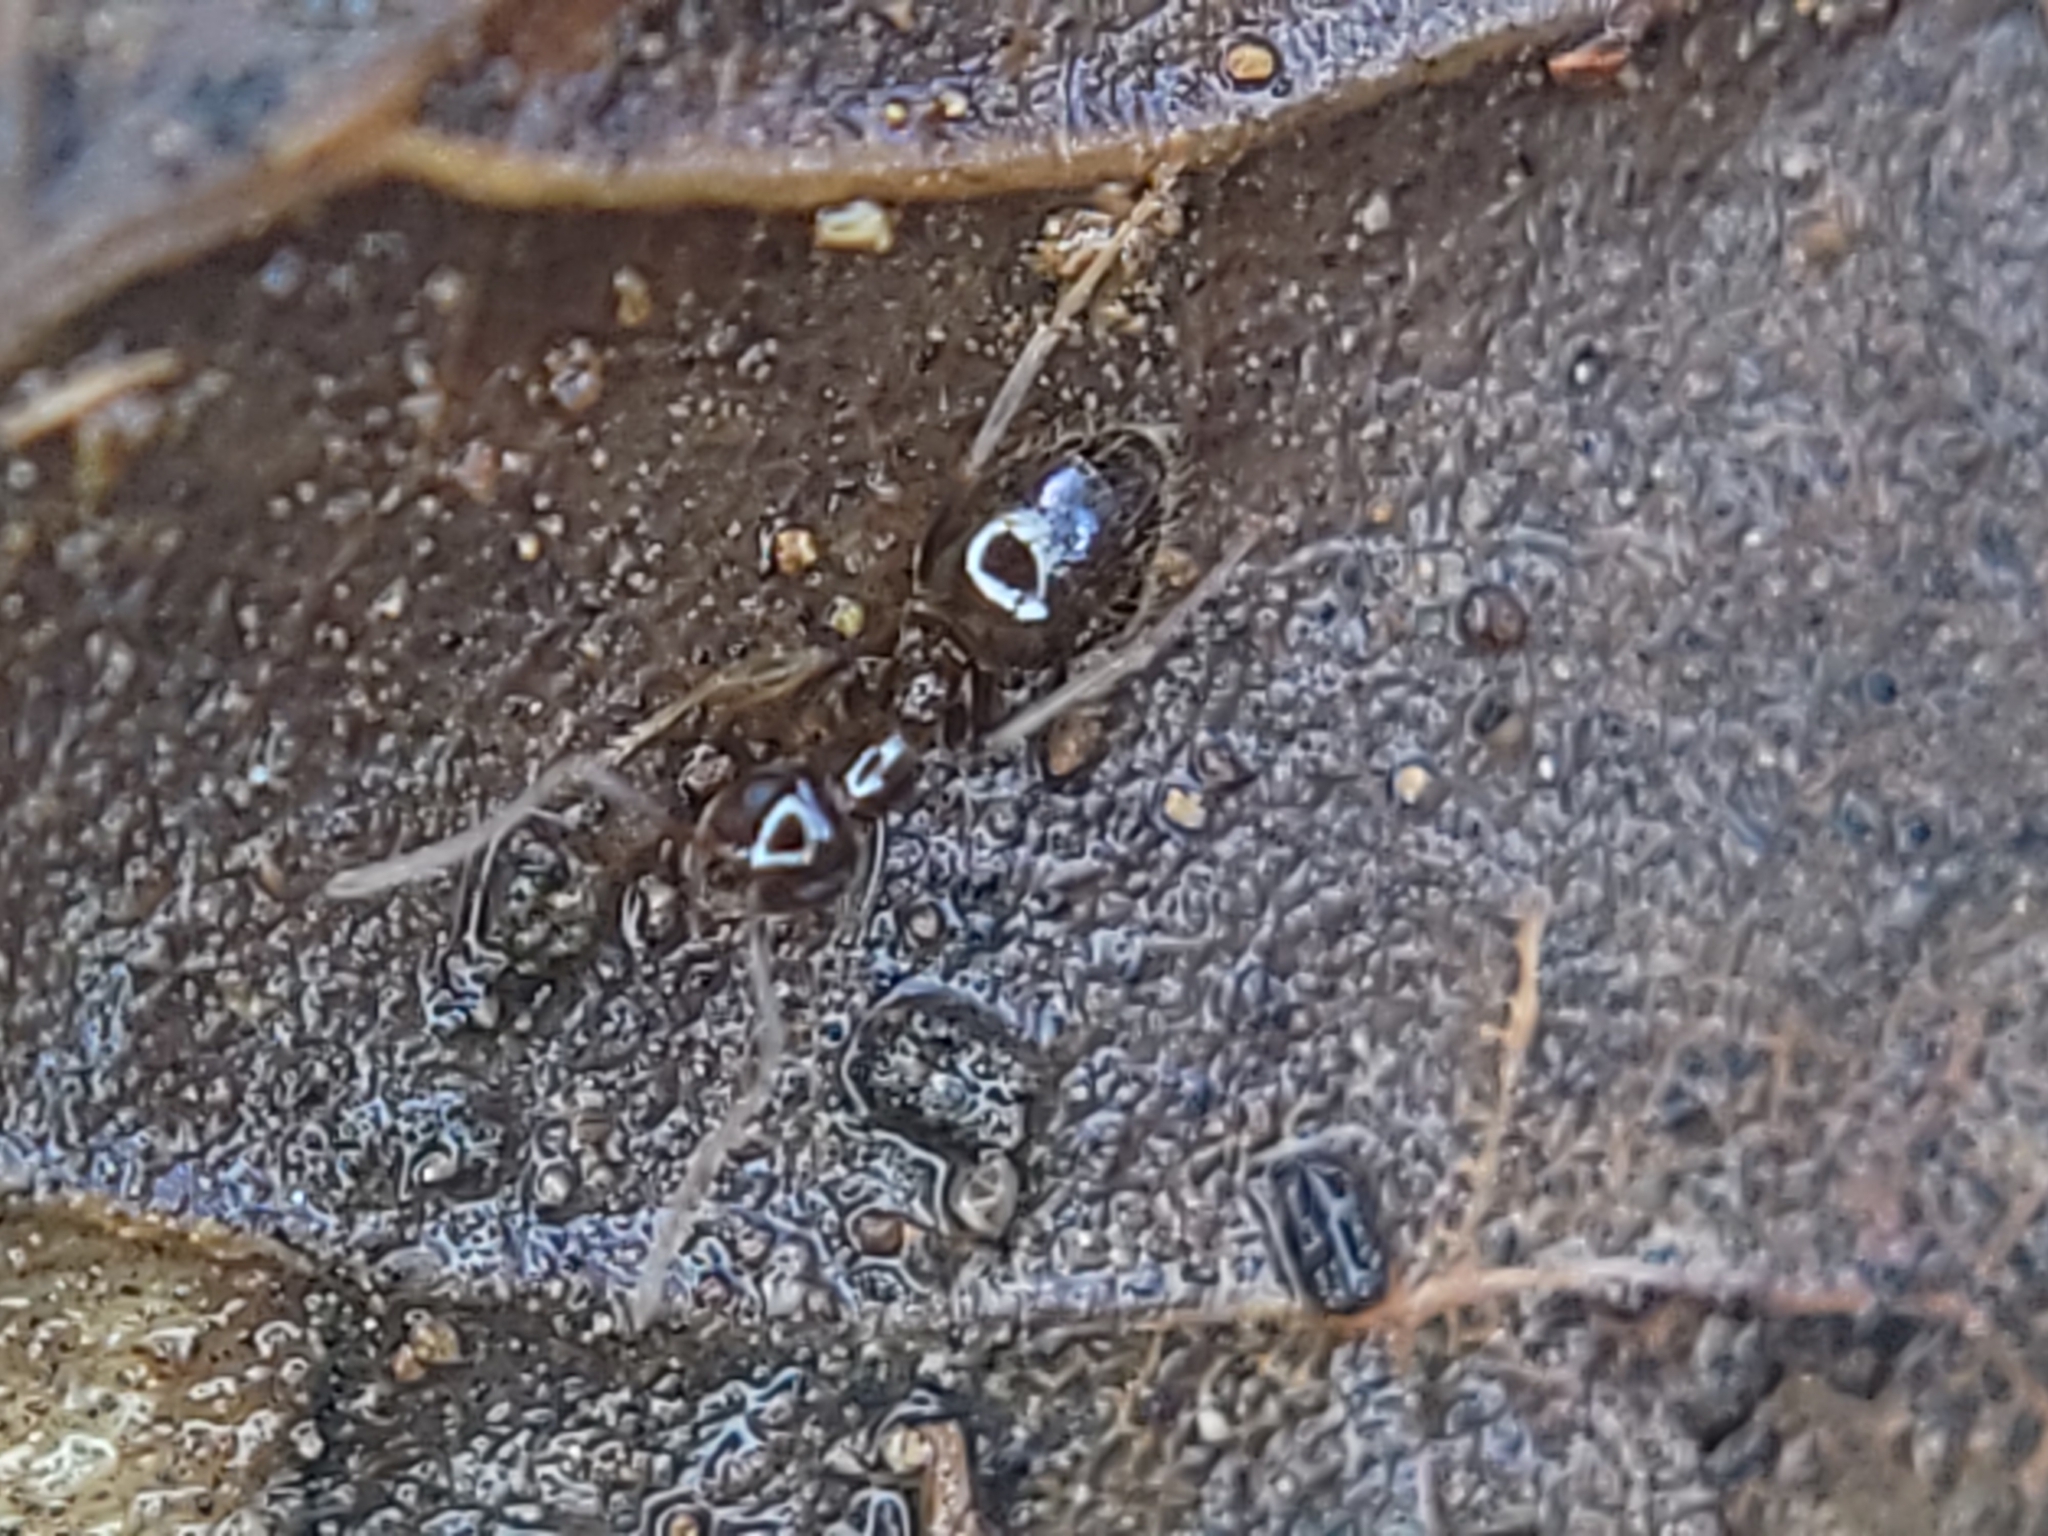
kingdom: Animalia
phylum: Arthropoda
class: Insecta
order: Hymenoptera
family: Formicidae
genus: Prenolepis
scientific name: Prenolepis imparis
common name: Small honey ant
